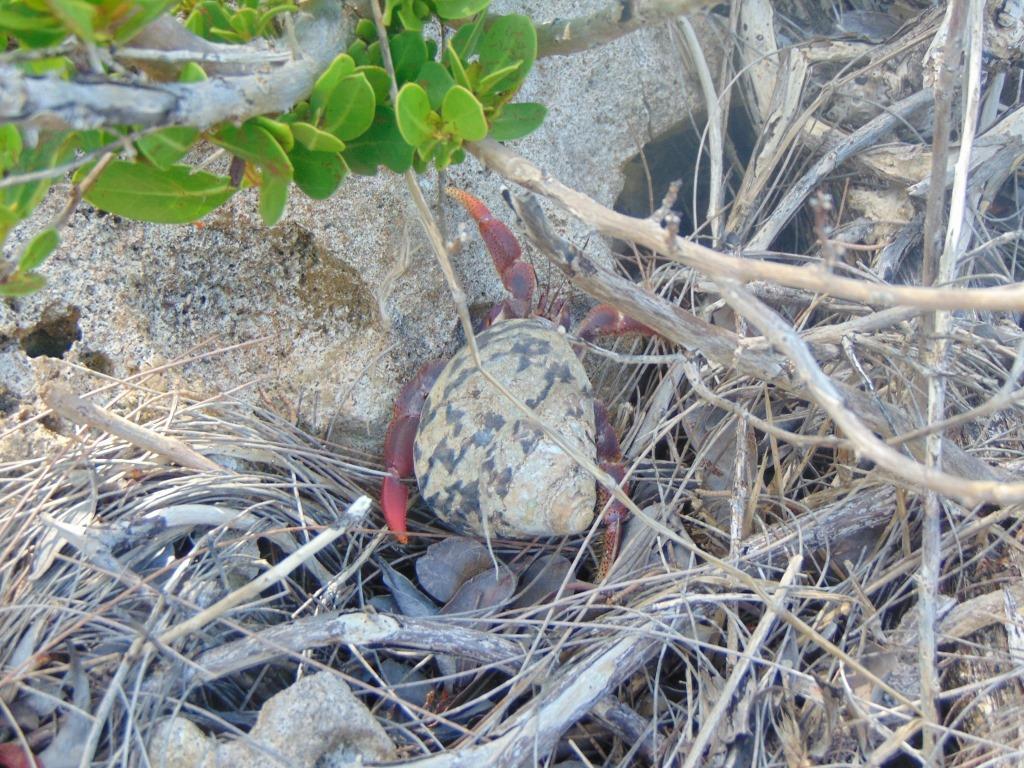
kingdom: Animalia
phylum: Arthropoda
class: Malacostraca
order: Decapoda
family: Coenobitidae
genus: Coenobita
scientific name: Coenobita clypeatus
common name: Caribbean hermit crab
